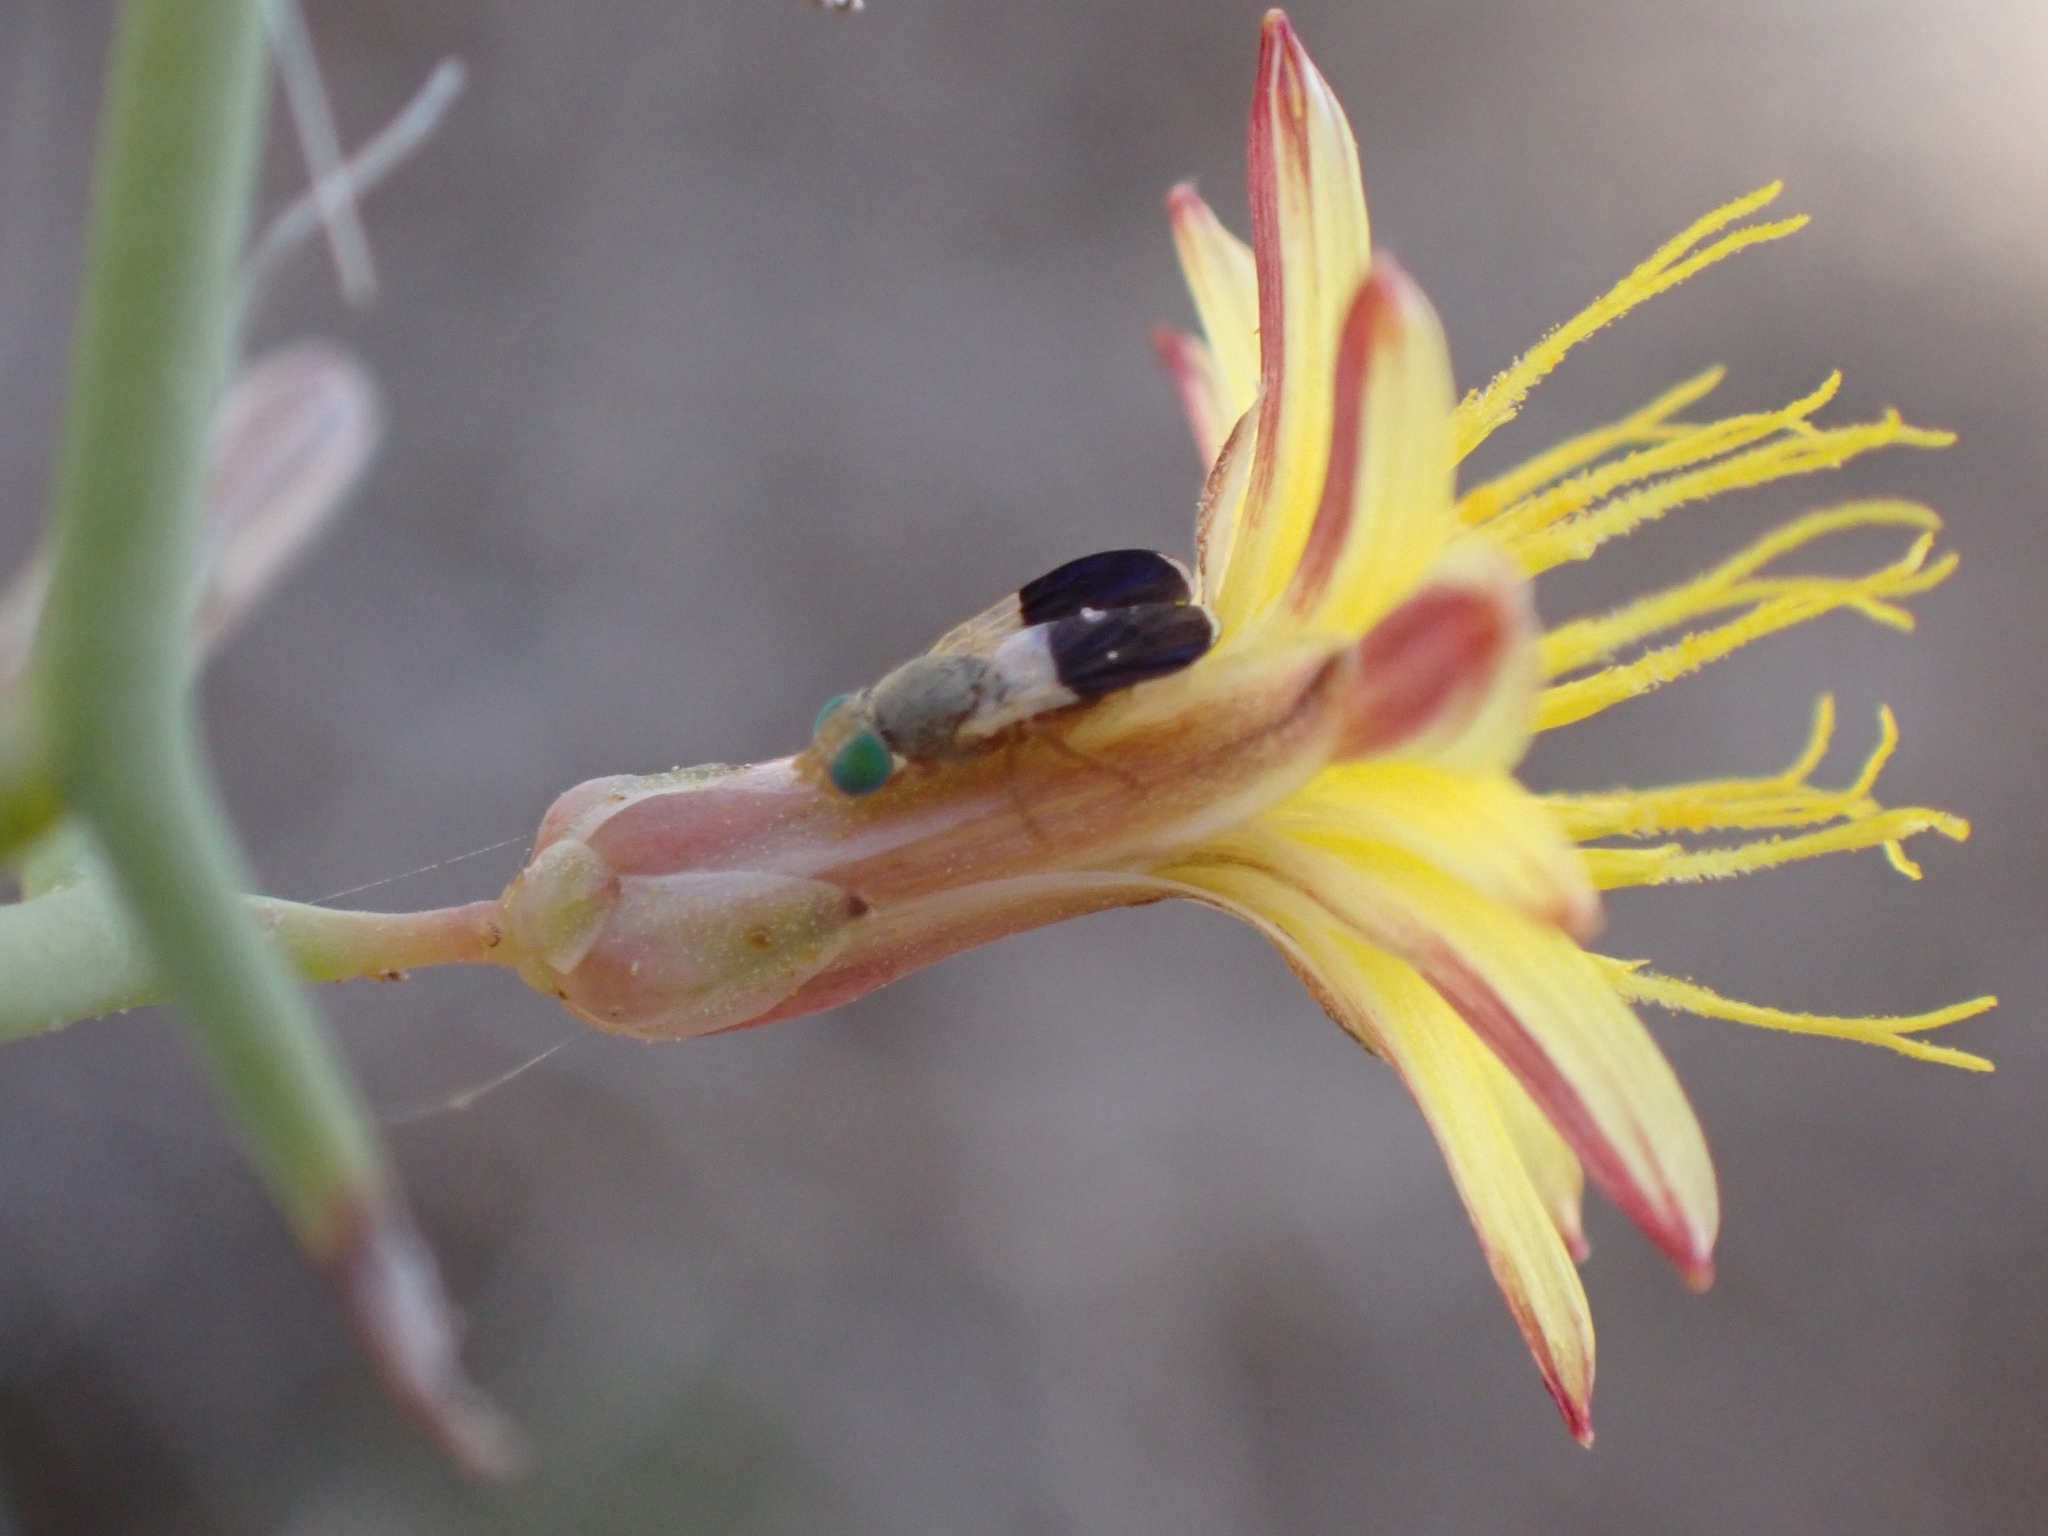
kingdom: Animalia
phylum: Arthropoda
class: Insecta
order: Diptera
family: Tephritidae
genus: Urelliosoma
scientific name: Urelliosoma guimari
